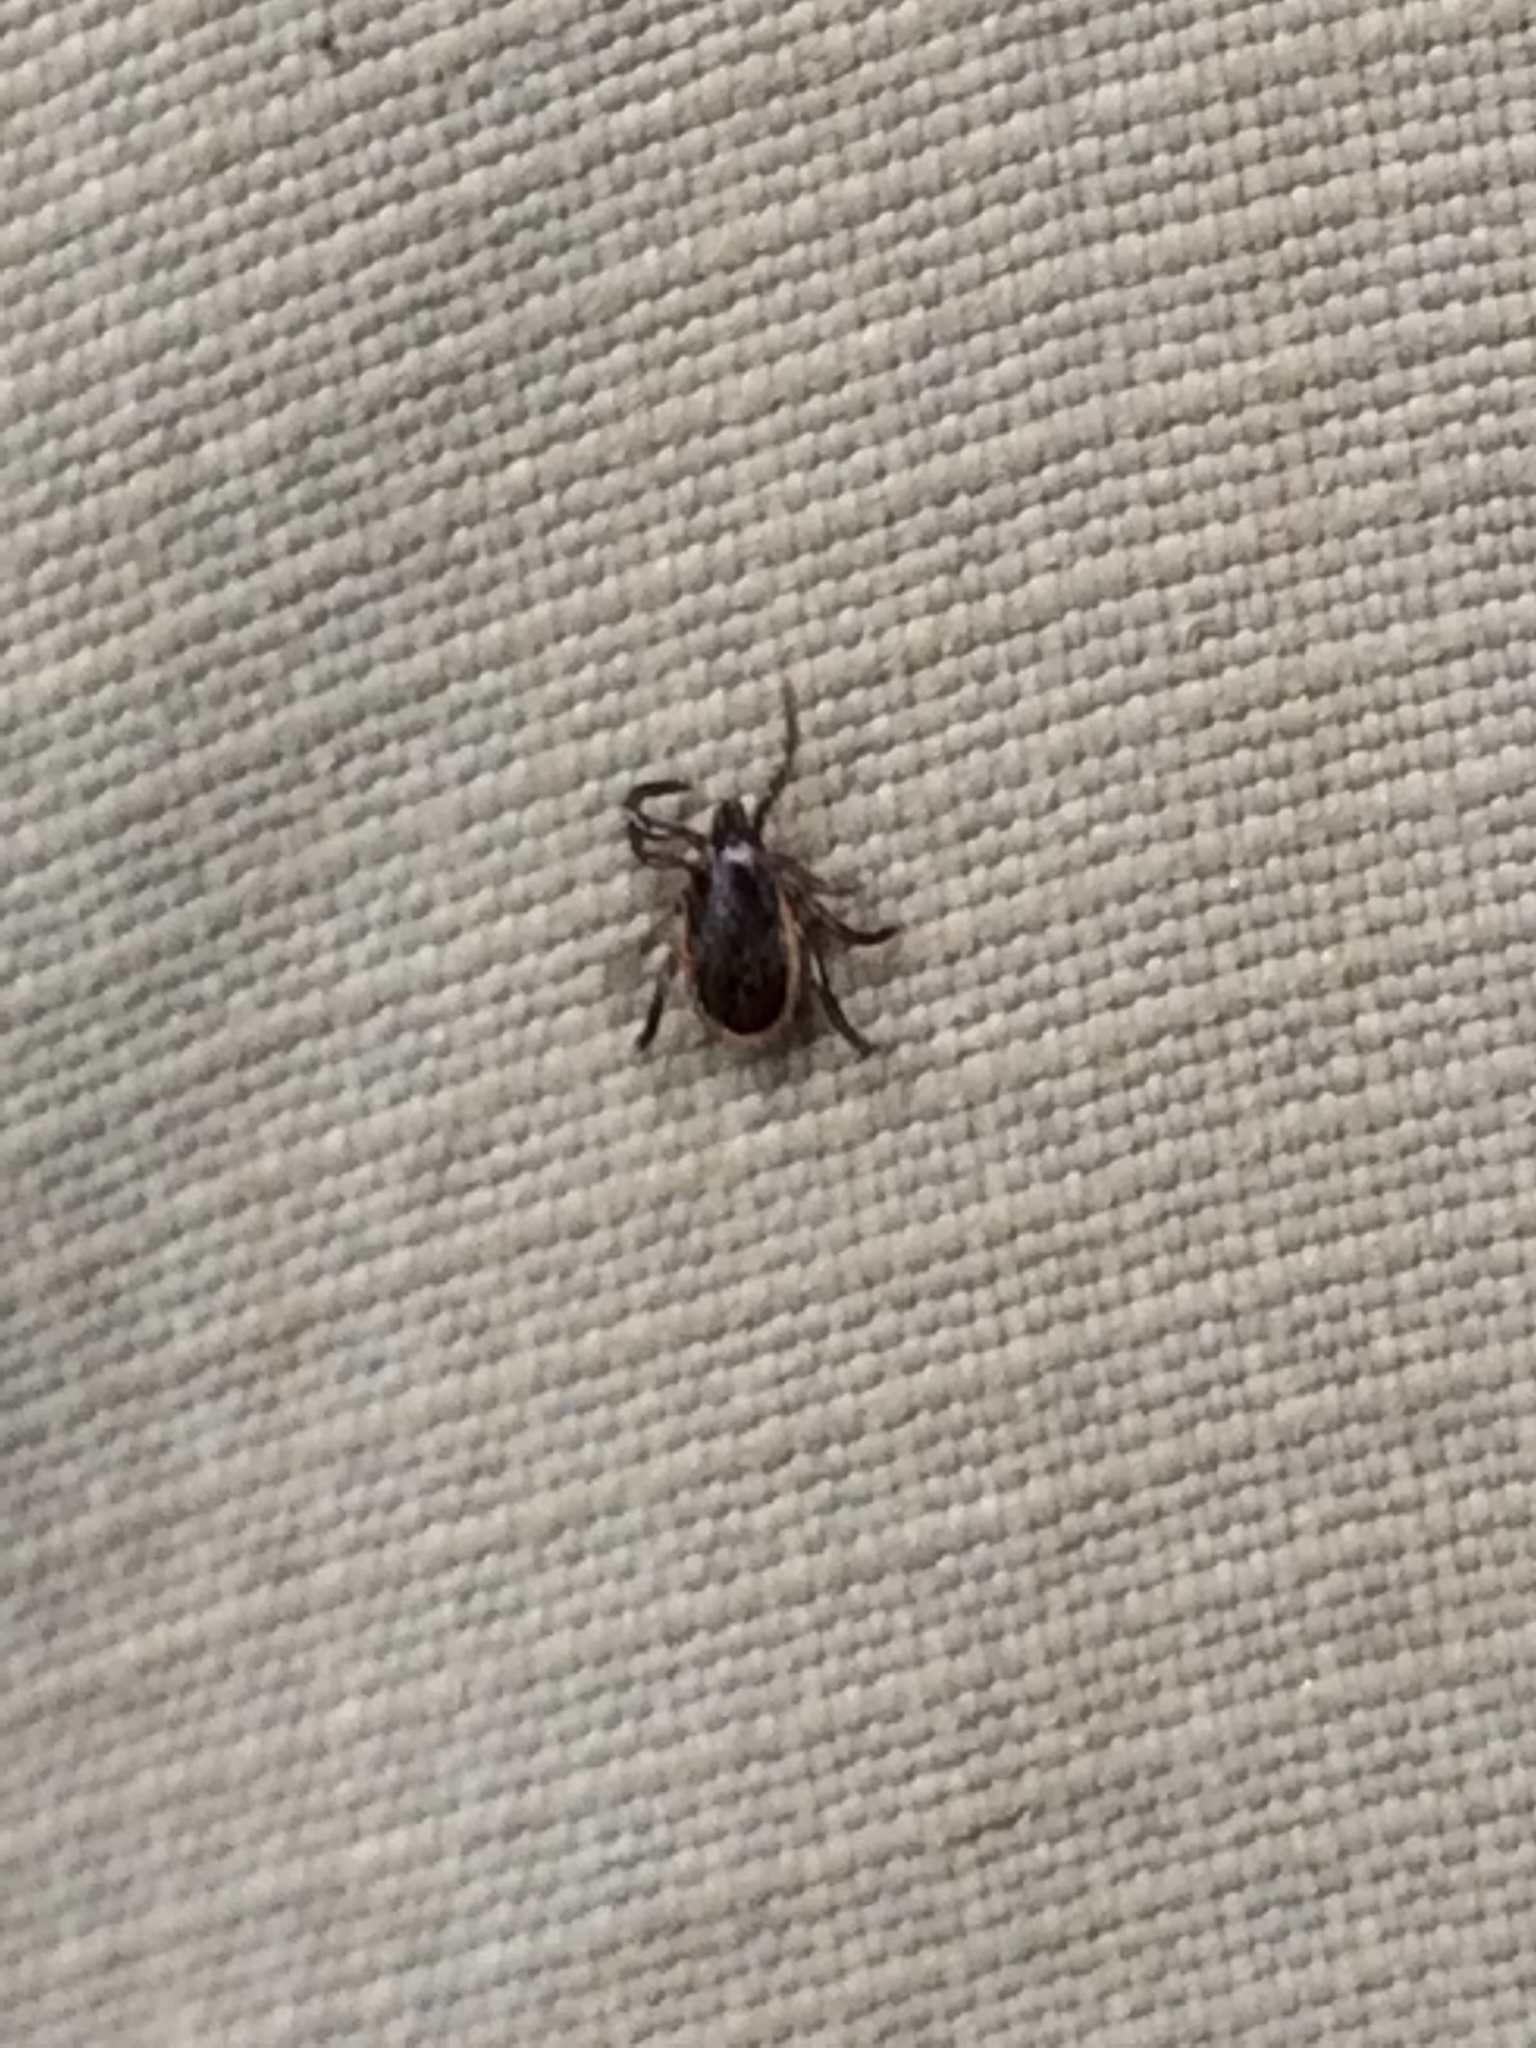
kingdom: Animalia
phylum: Arthropoda
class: Arachnida
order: Ixodida
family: Ixodidae
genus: Ixodes
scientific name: Ixodes scapularis
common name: Black legged tick
